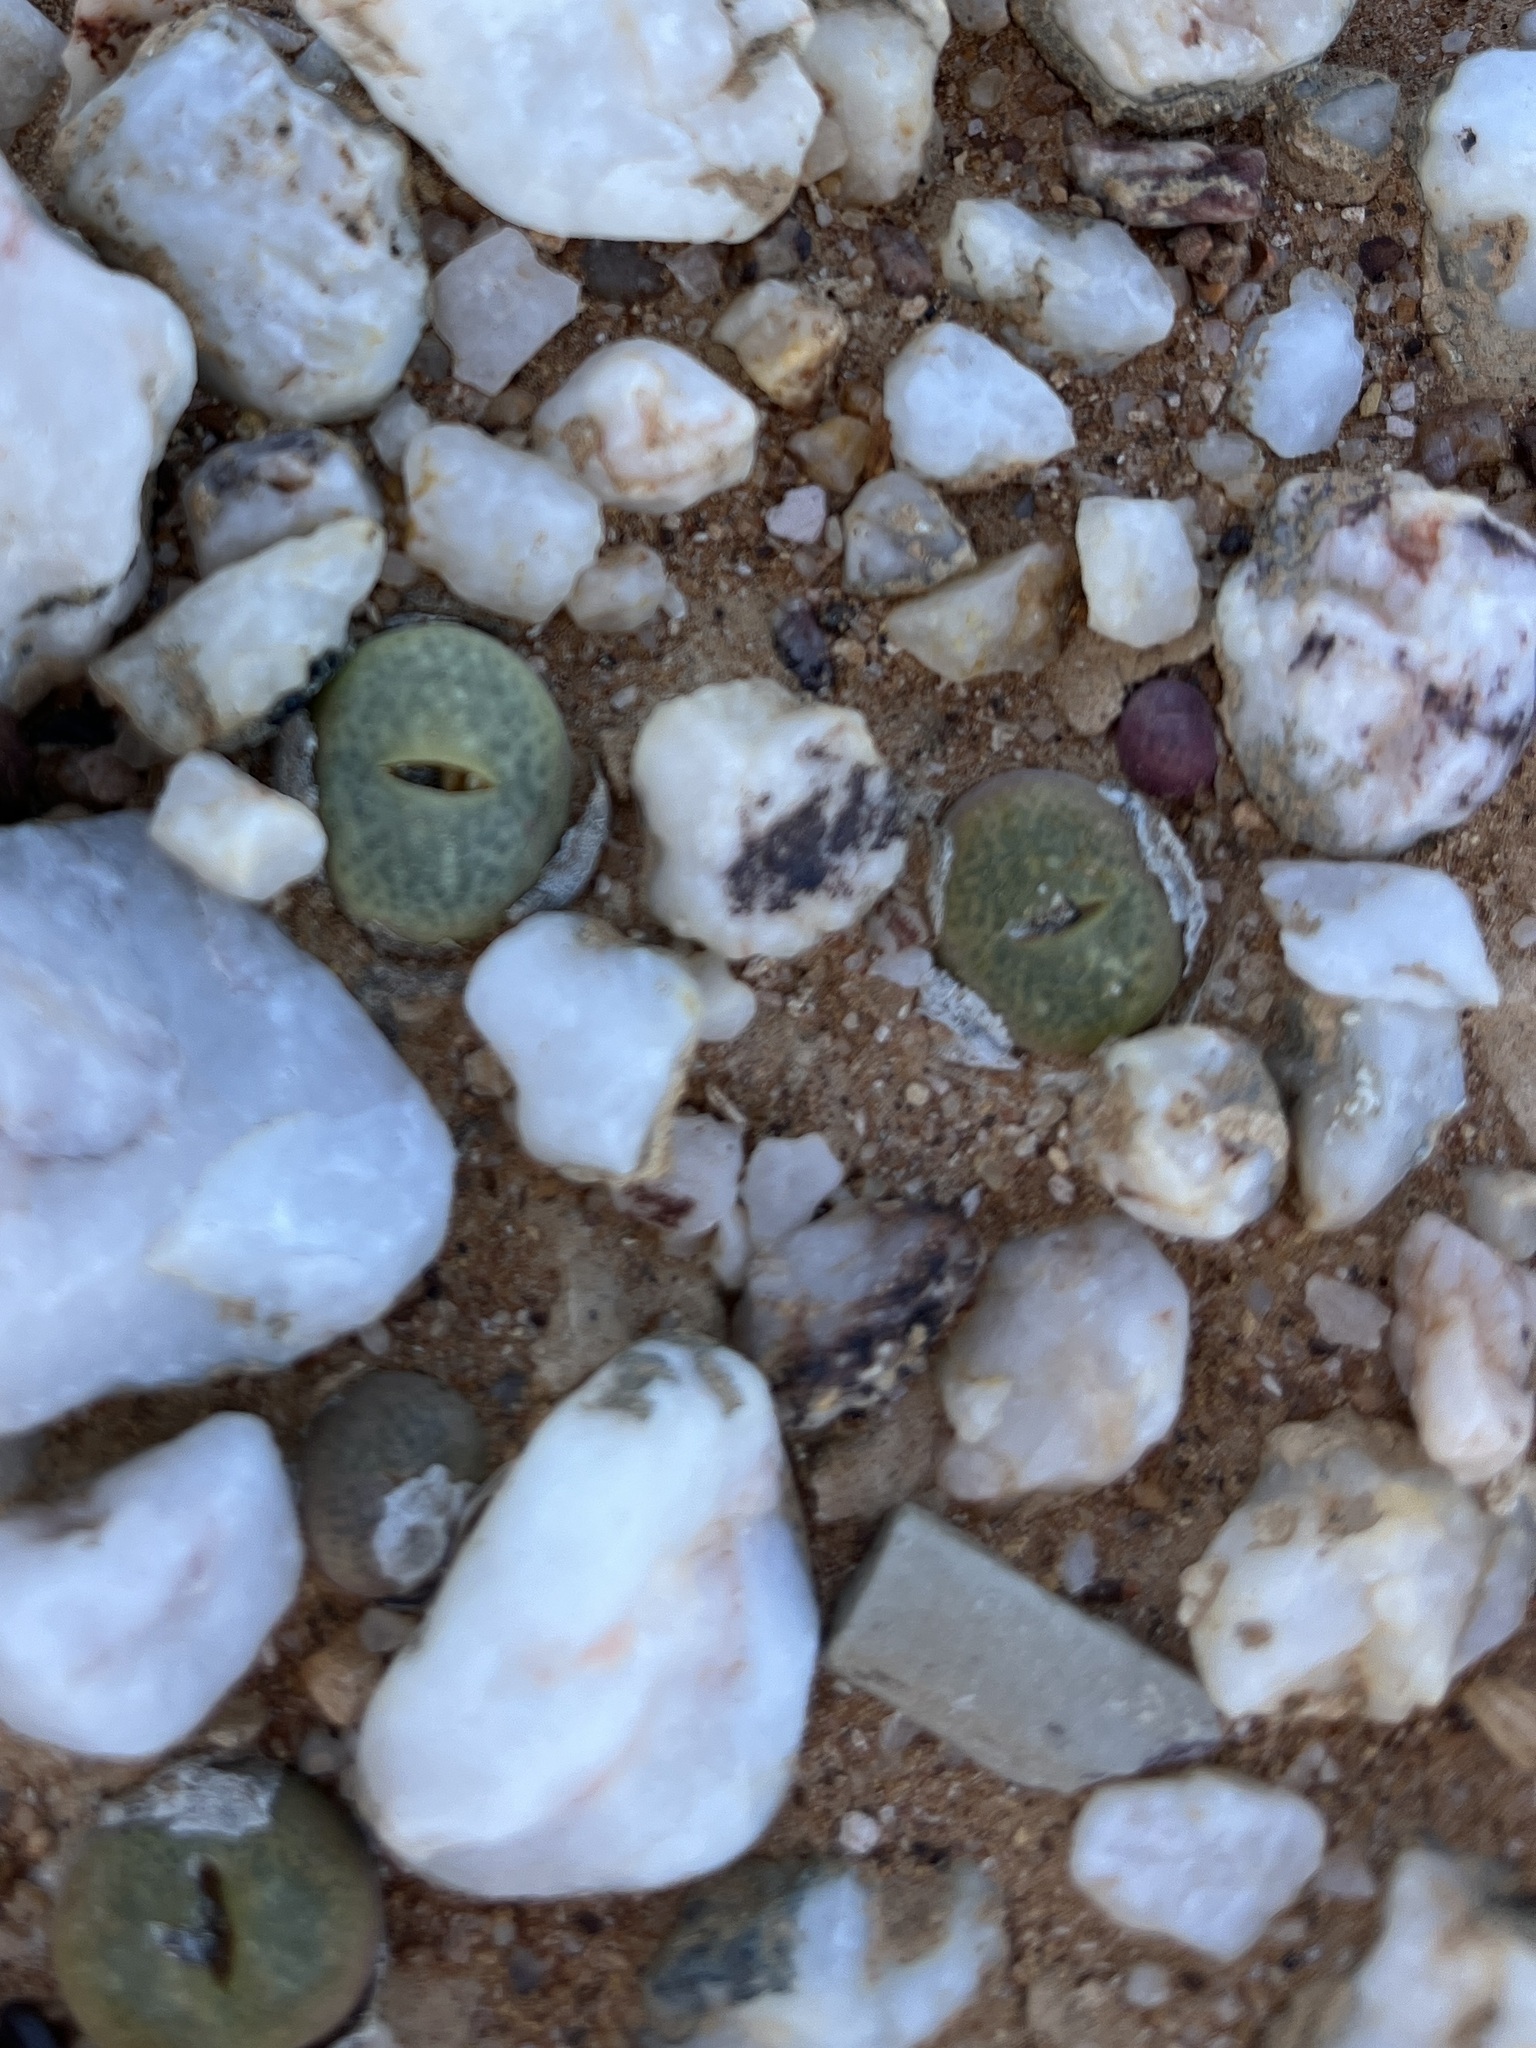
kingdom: Plantae
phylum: Tracheophyta
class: Magnoliopsida
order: Caryophyllales
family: Aizoaceae
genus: Conophytum
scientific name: Conophytum subfenestratum
